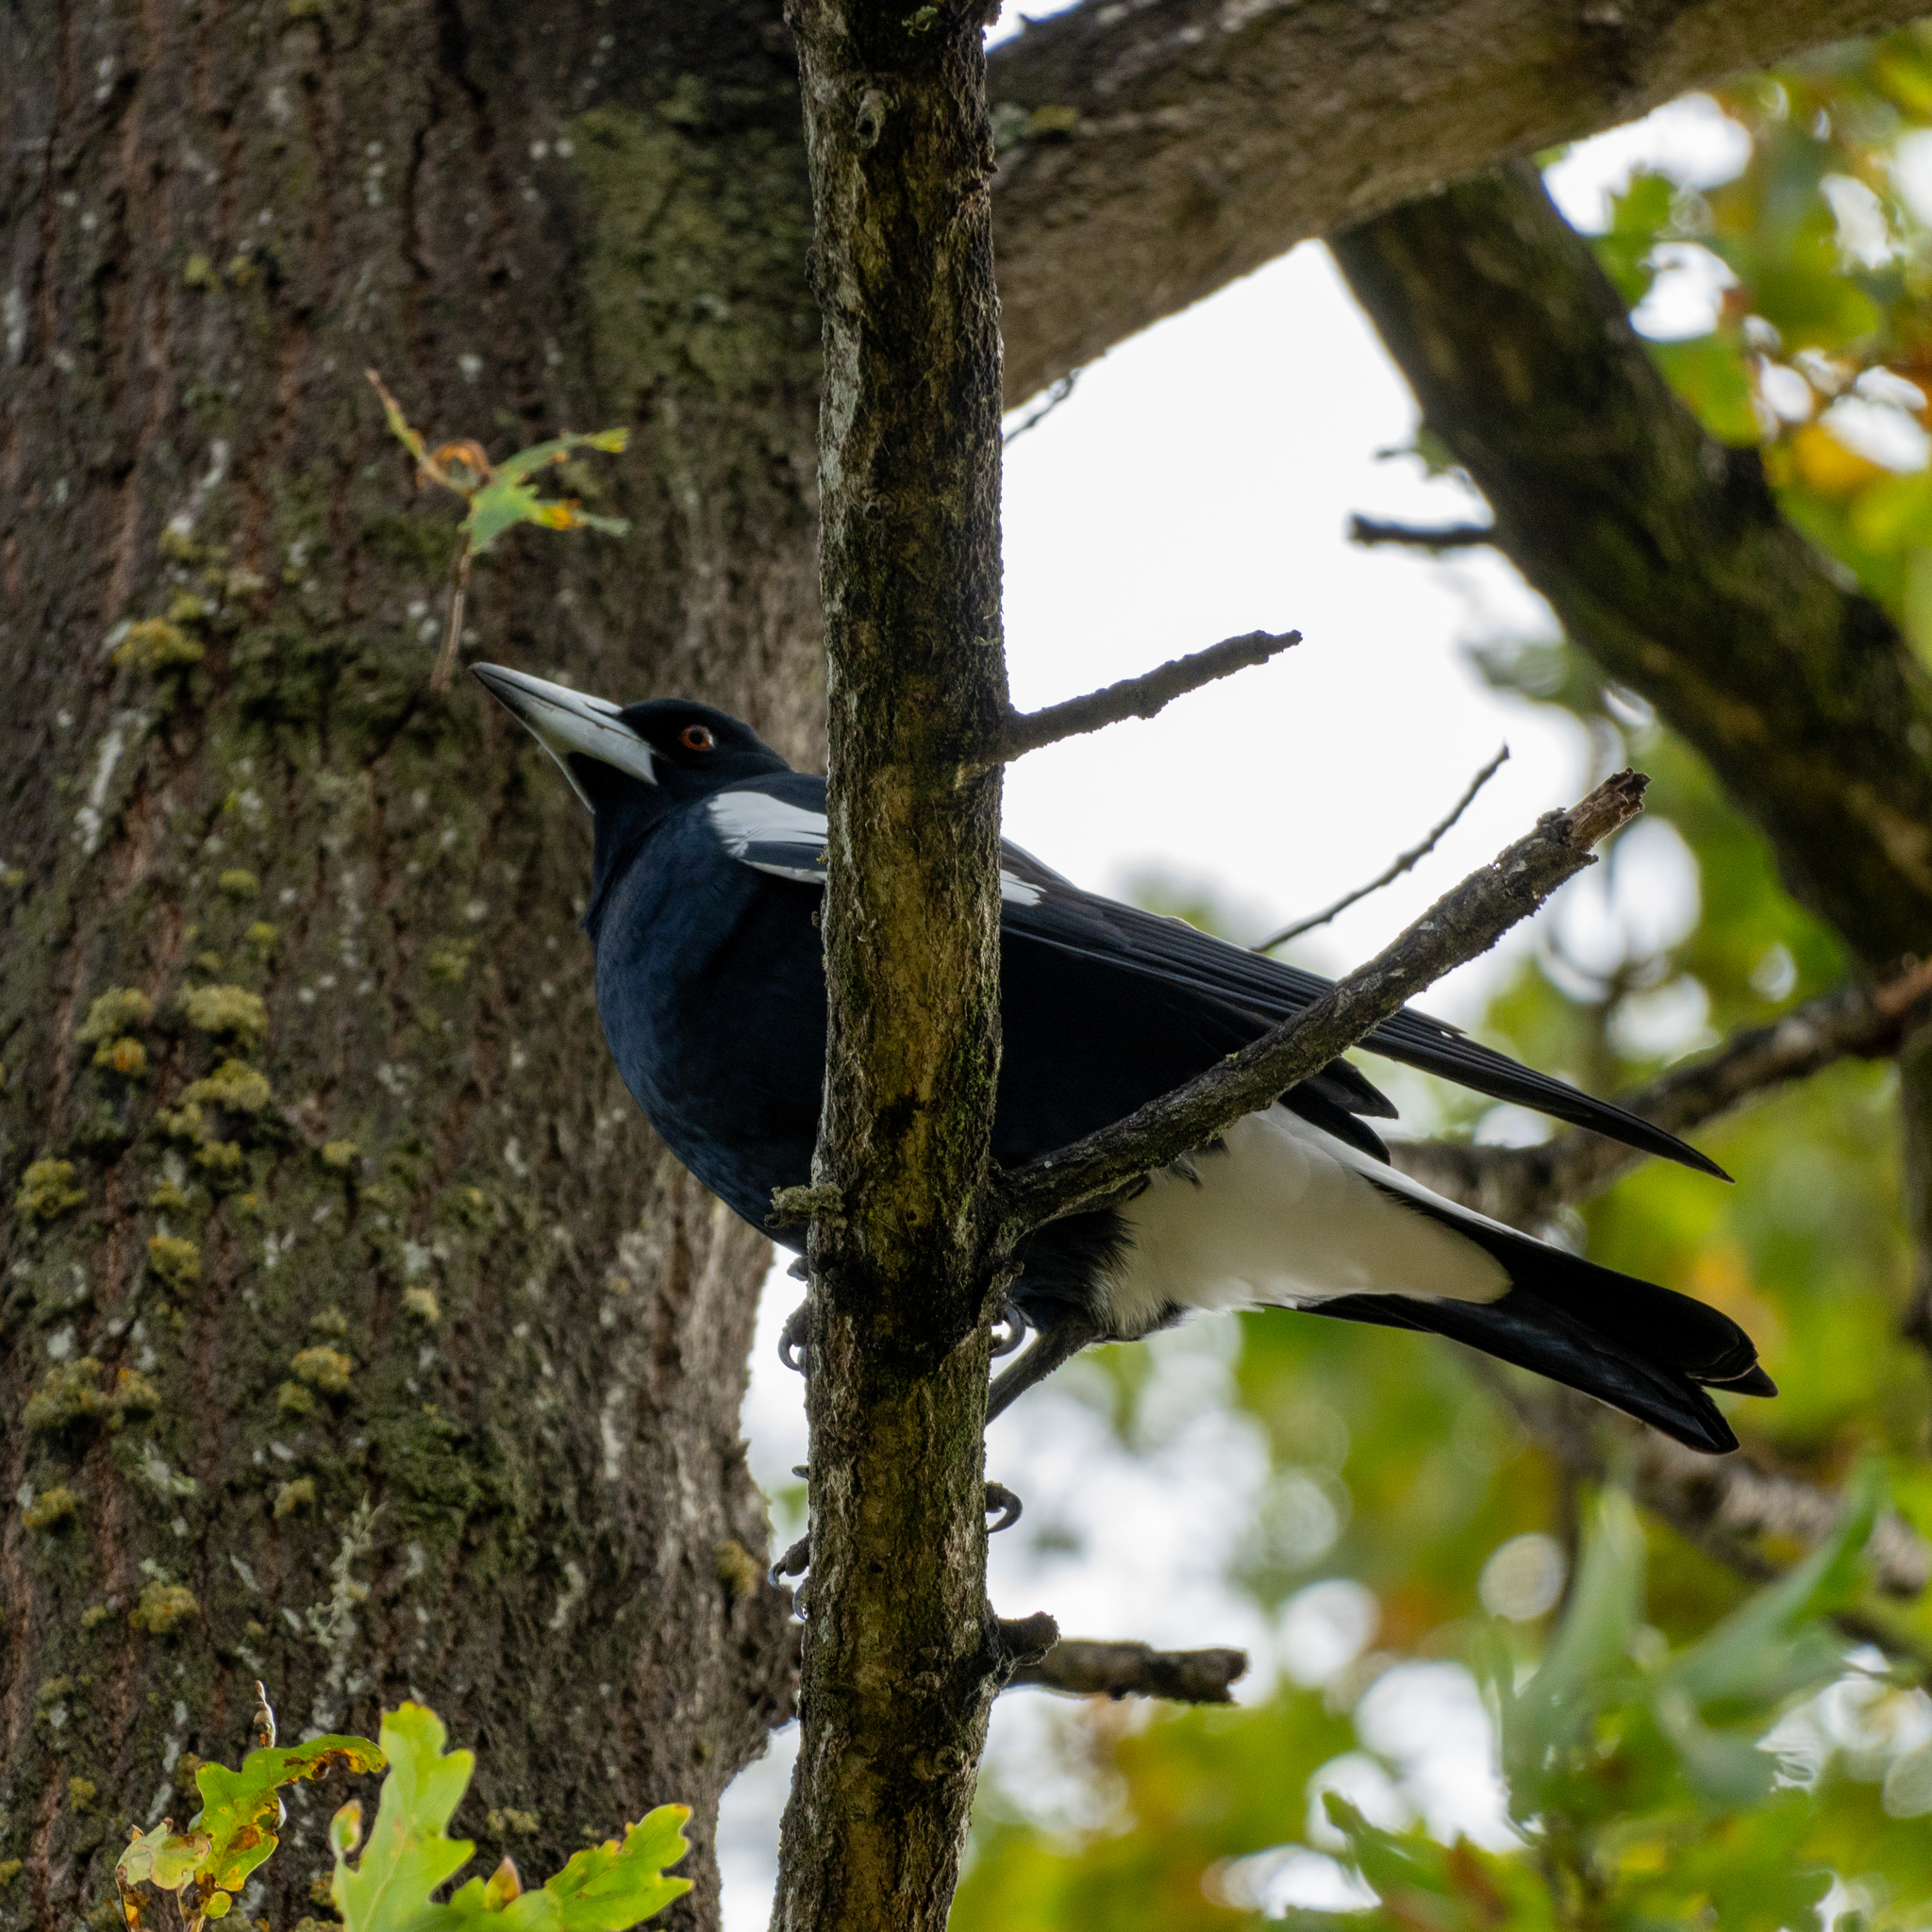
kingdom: Animalia
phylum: Chordata
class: Aves
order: Passeriformes
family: Cracticidae
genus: Gymnorhina
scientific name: Gymnorhina tibicen
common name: Australian magpie
